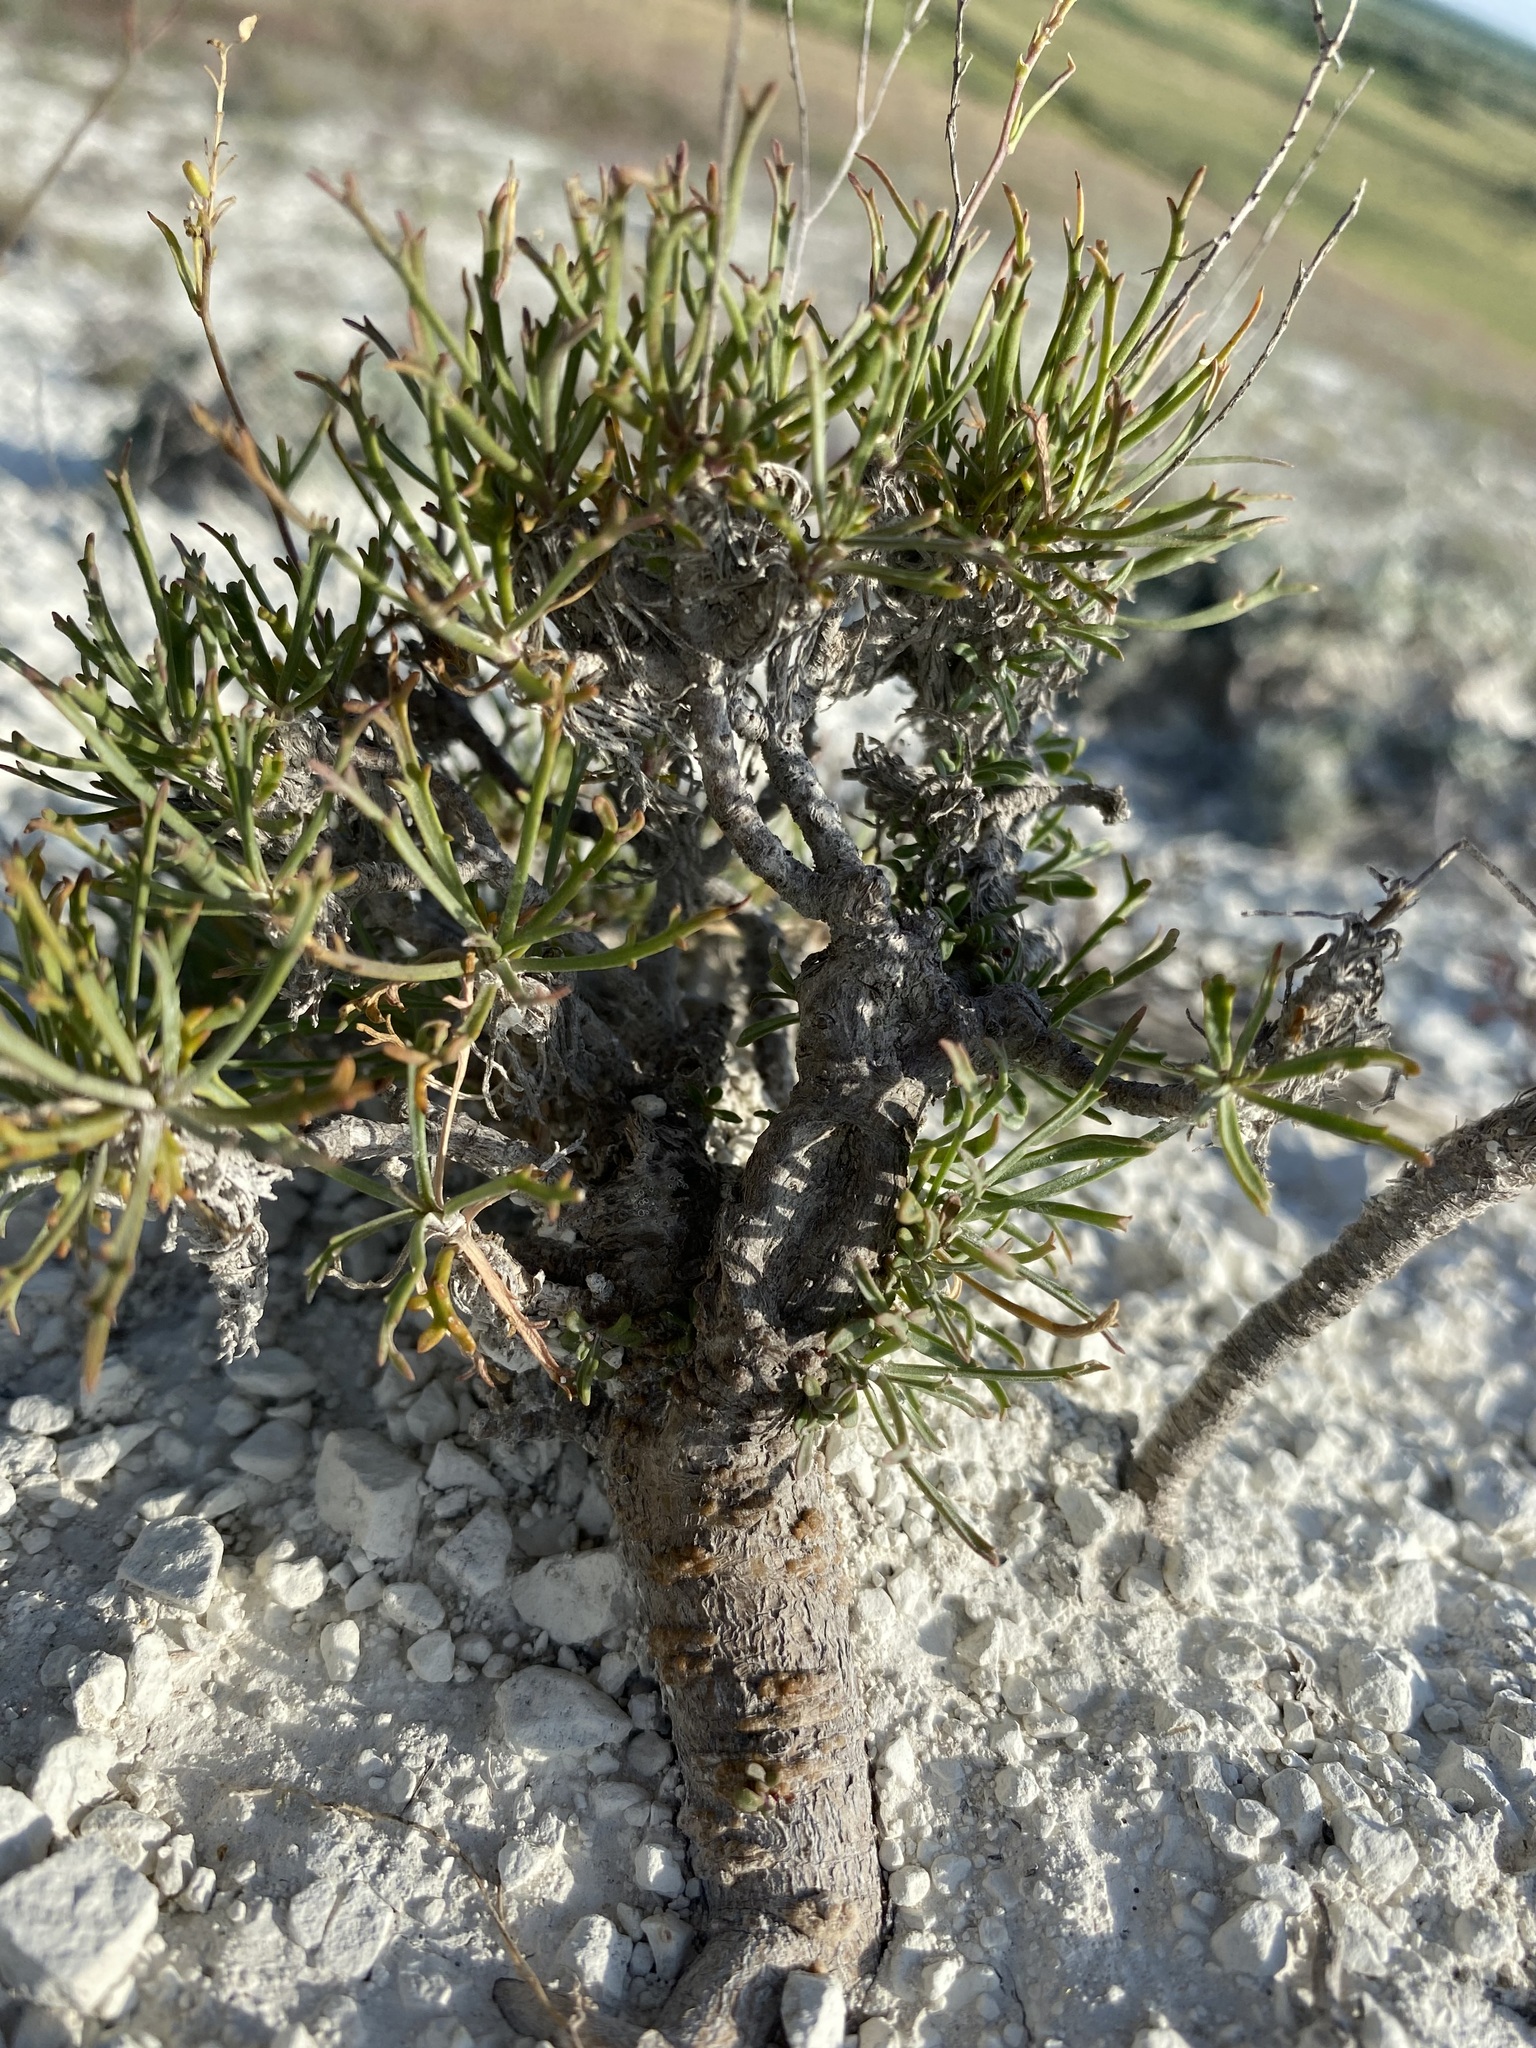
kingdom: Plantae
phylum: Tracheophyta
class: Magnoliopsida
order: Brassicales
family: Brassicaceae
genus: Lepidium
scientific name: Lepidium meyeri
